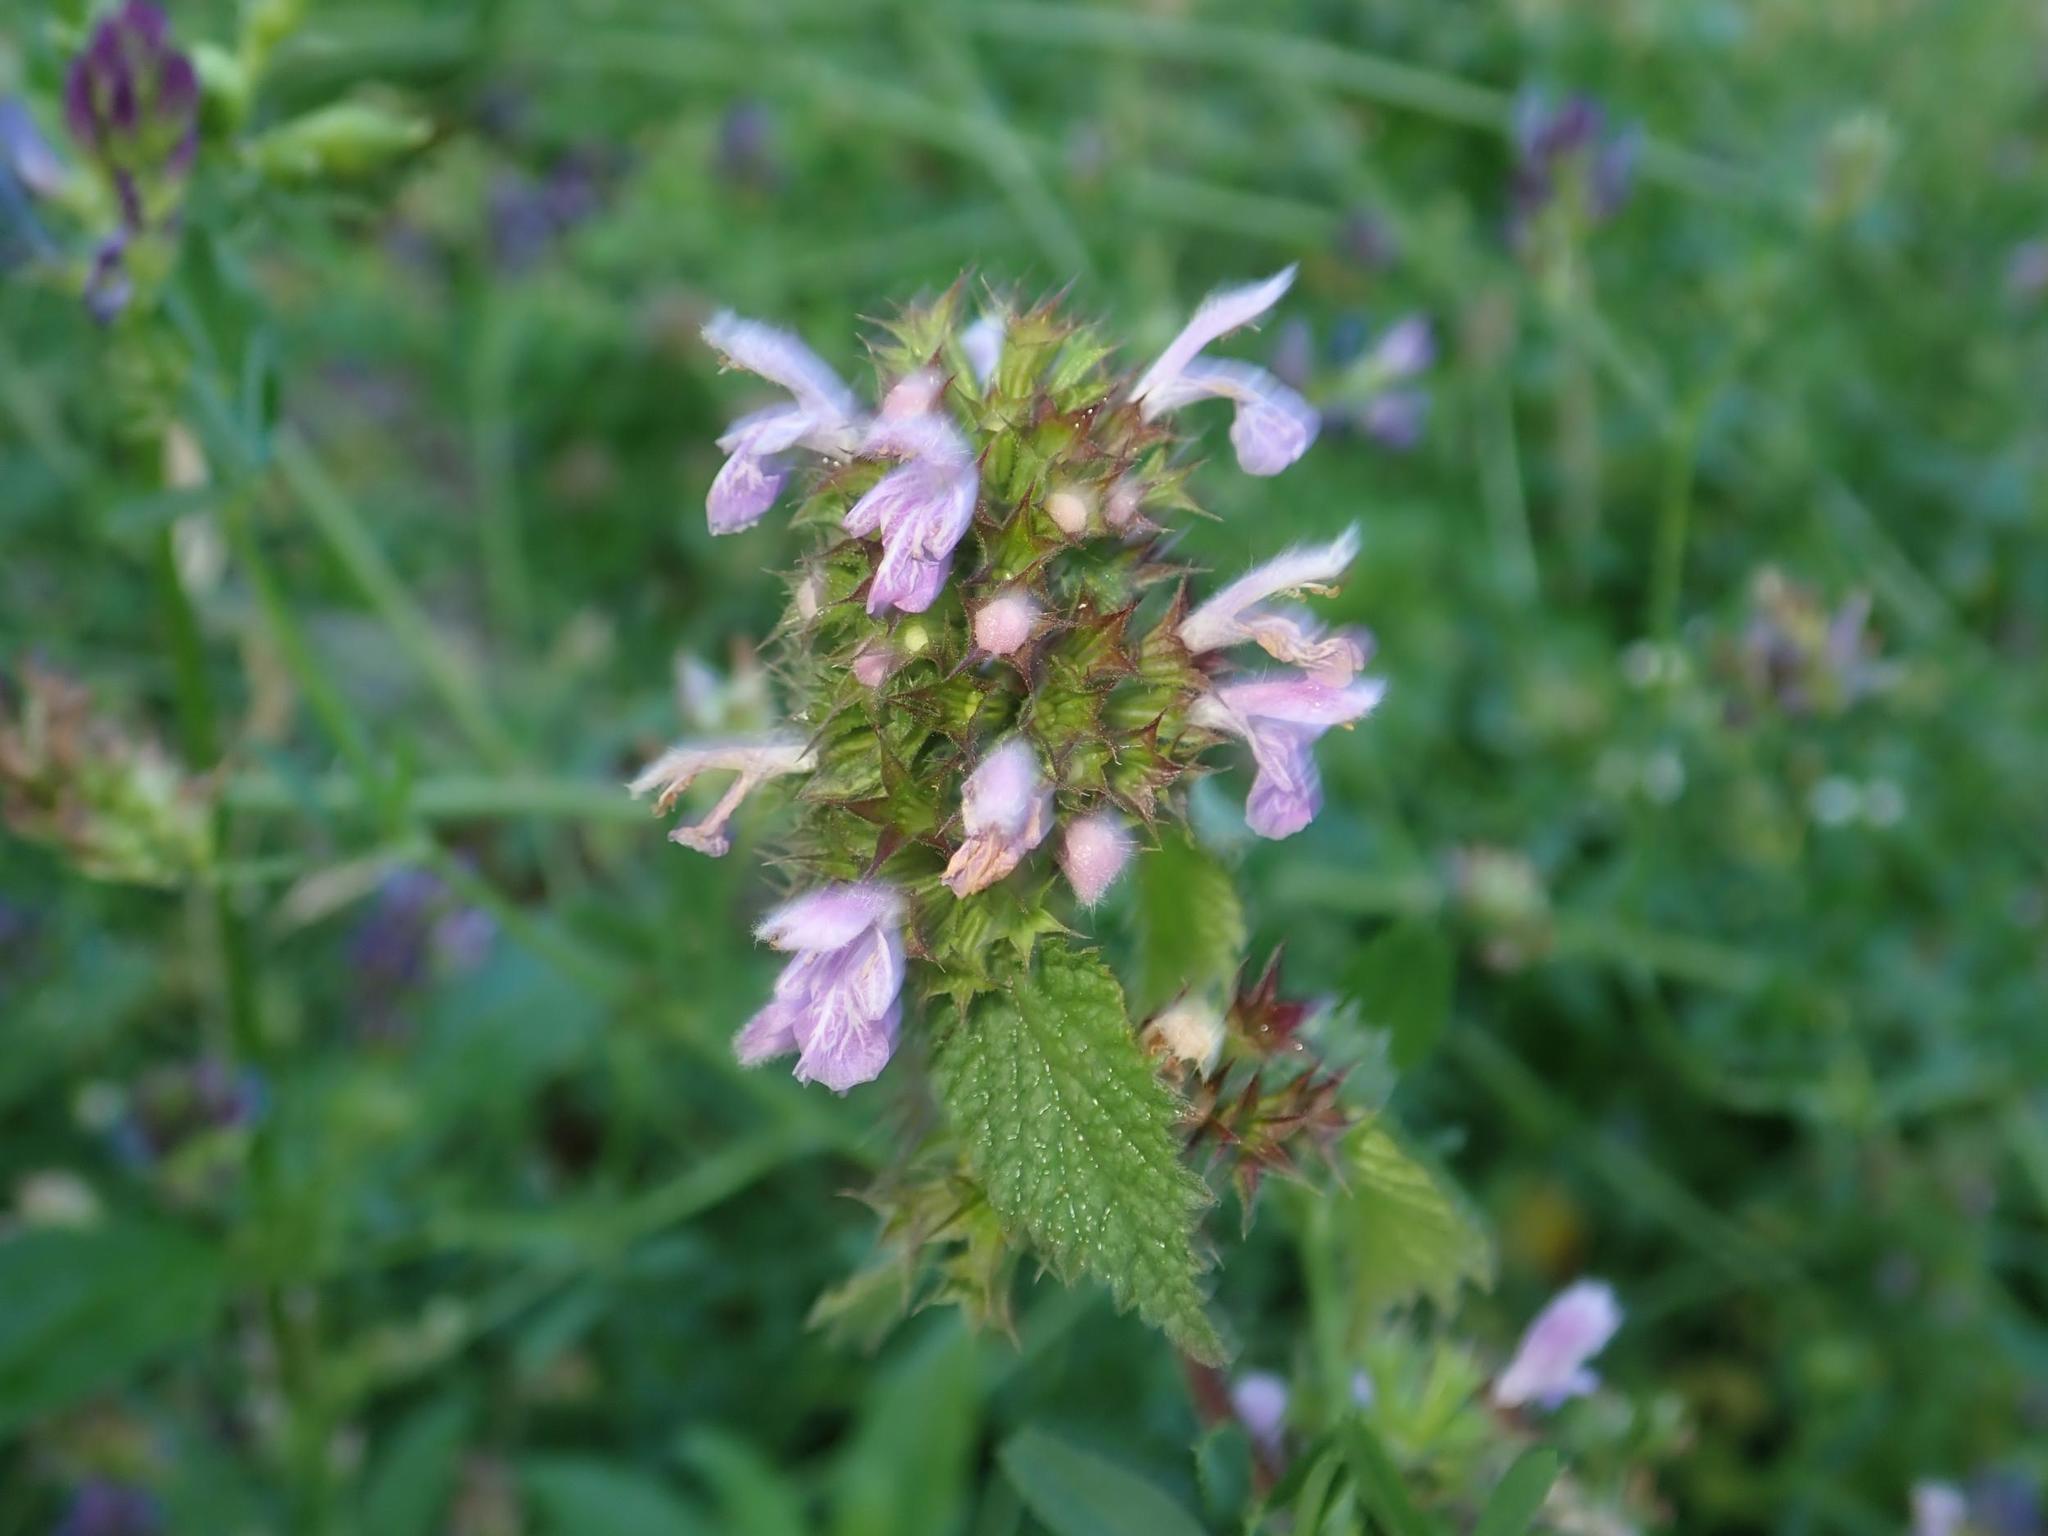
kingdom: Plantae
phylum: Tracheophyta
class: Magnoliopsida
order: Lamiales
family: Lamiaceae
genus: Ballota
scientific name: Ballota nigra
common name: Black horehound
